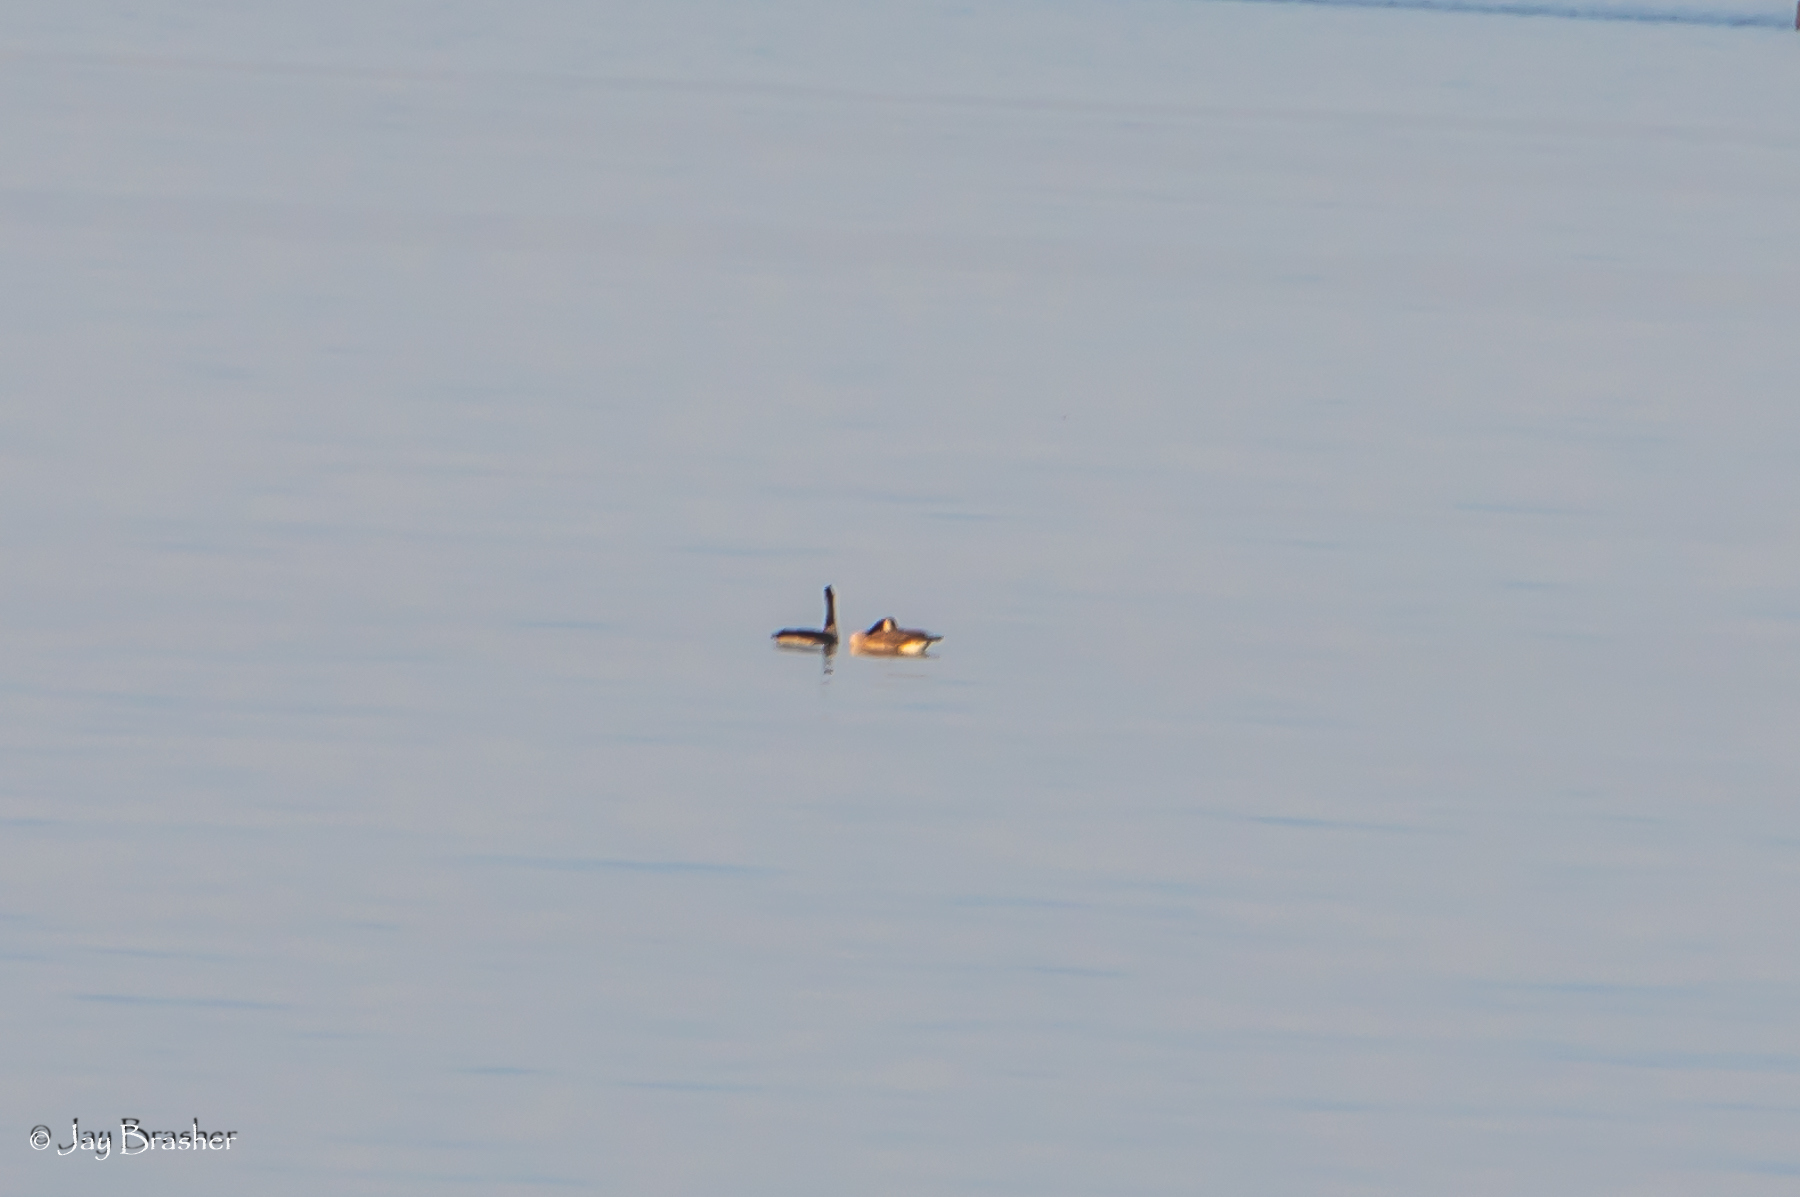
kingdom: Animalia
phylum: Chordata
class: Aves
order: Anseriformes
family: Anatidae
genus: Branta
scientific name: Branta canadensis
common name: Canada goose
